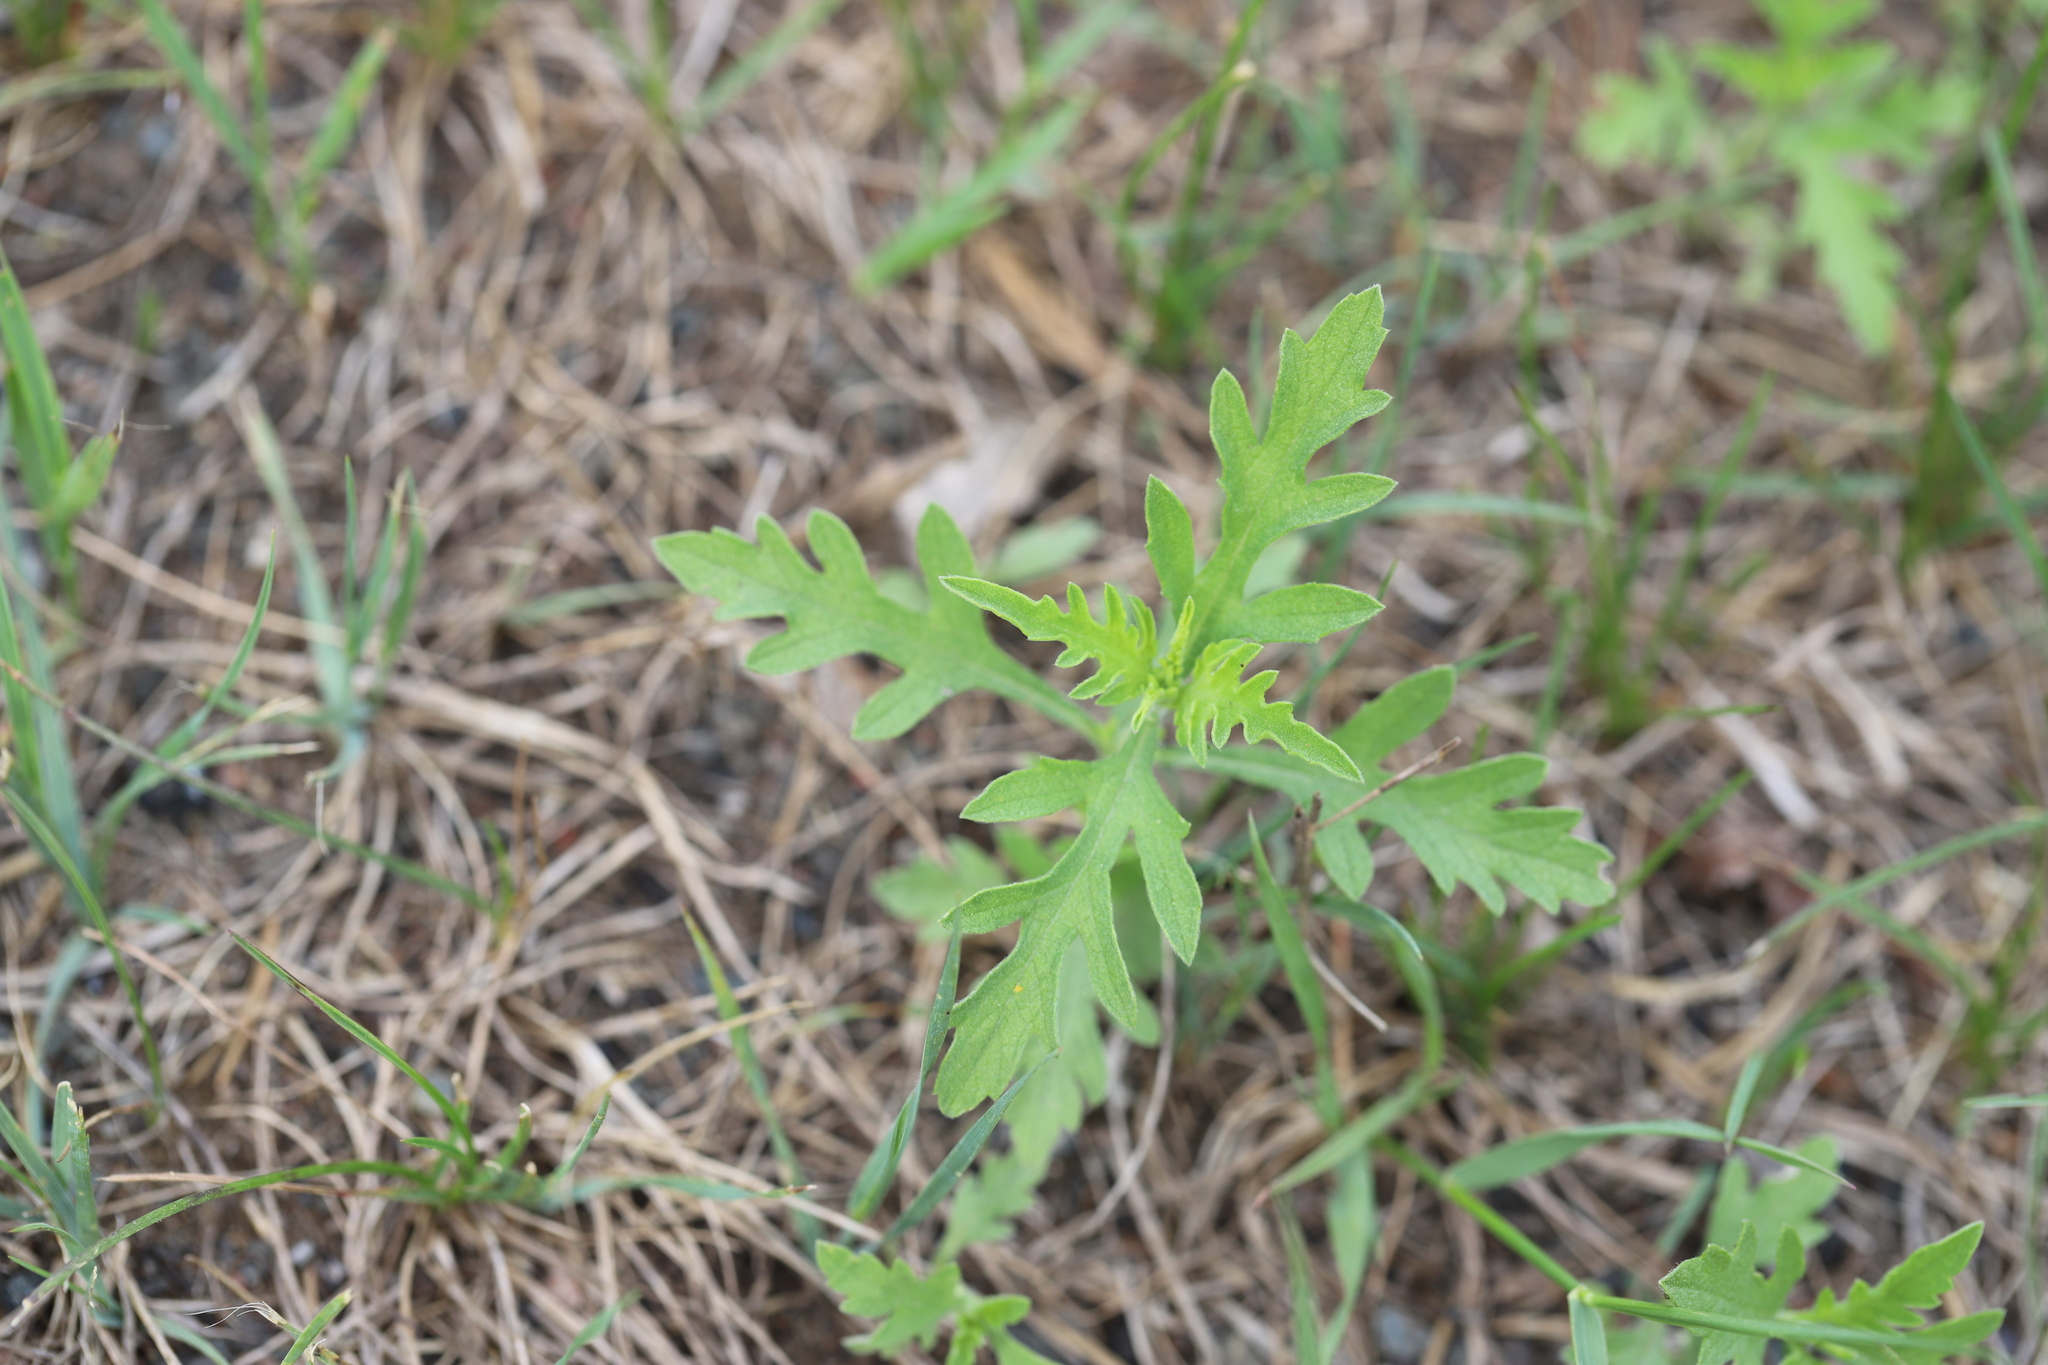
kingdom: Plantae
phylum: Tracheophyta
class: Magnoliopsida
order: Asterales
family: Asteraceae
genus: Ambrosia
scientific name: Ambrosia artemisiifolia
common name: Annual ragweed
